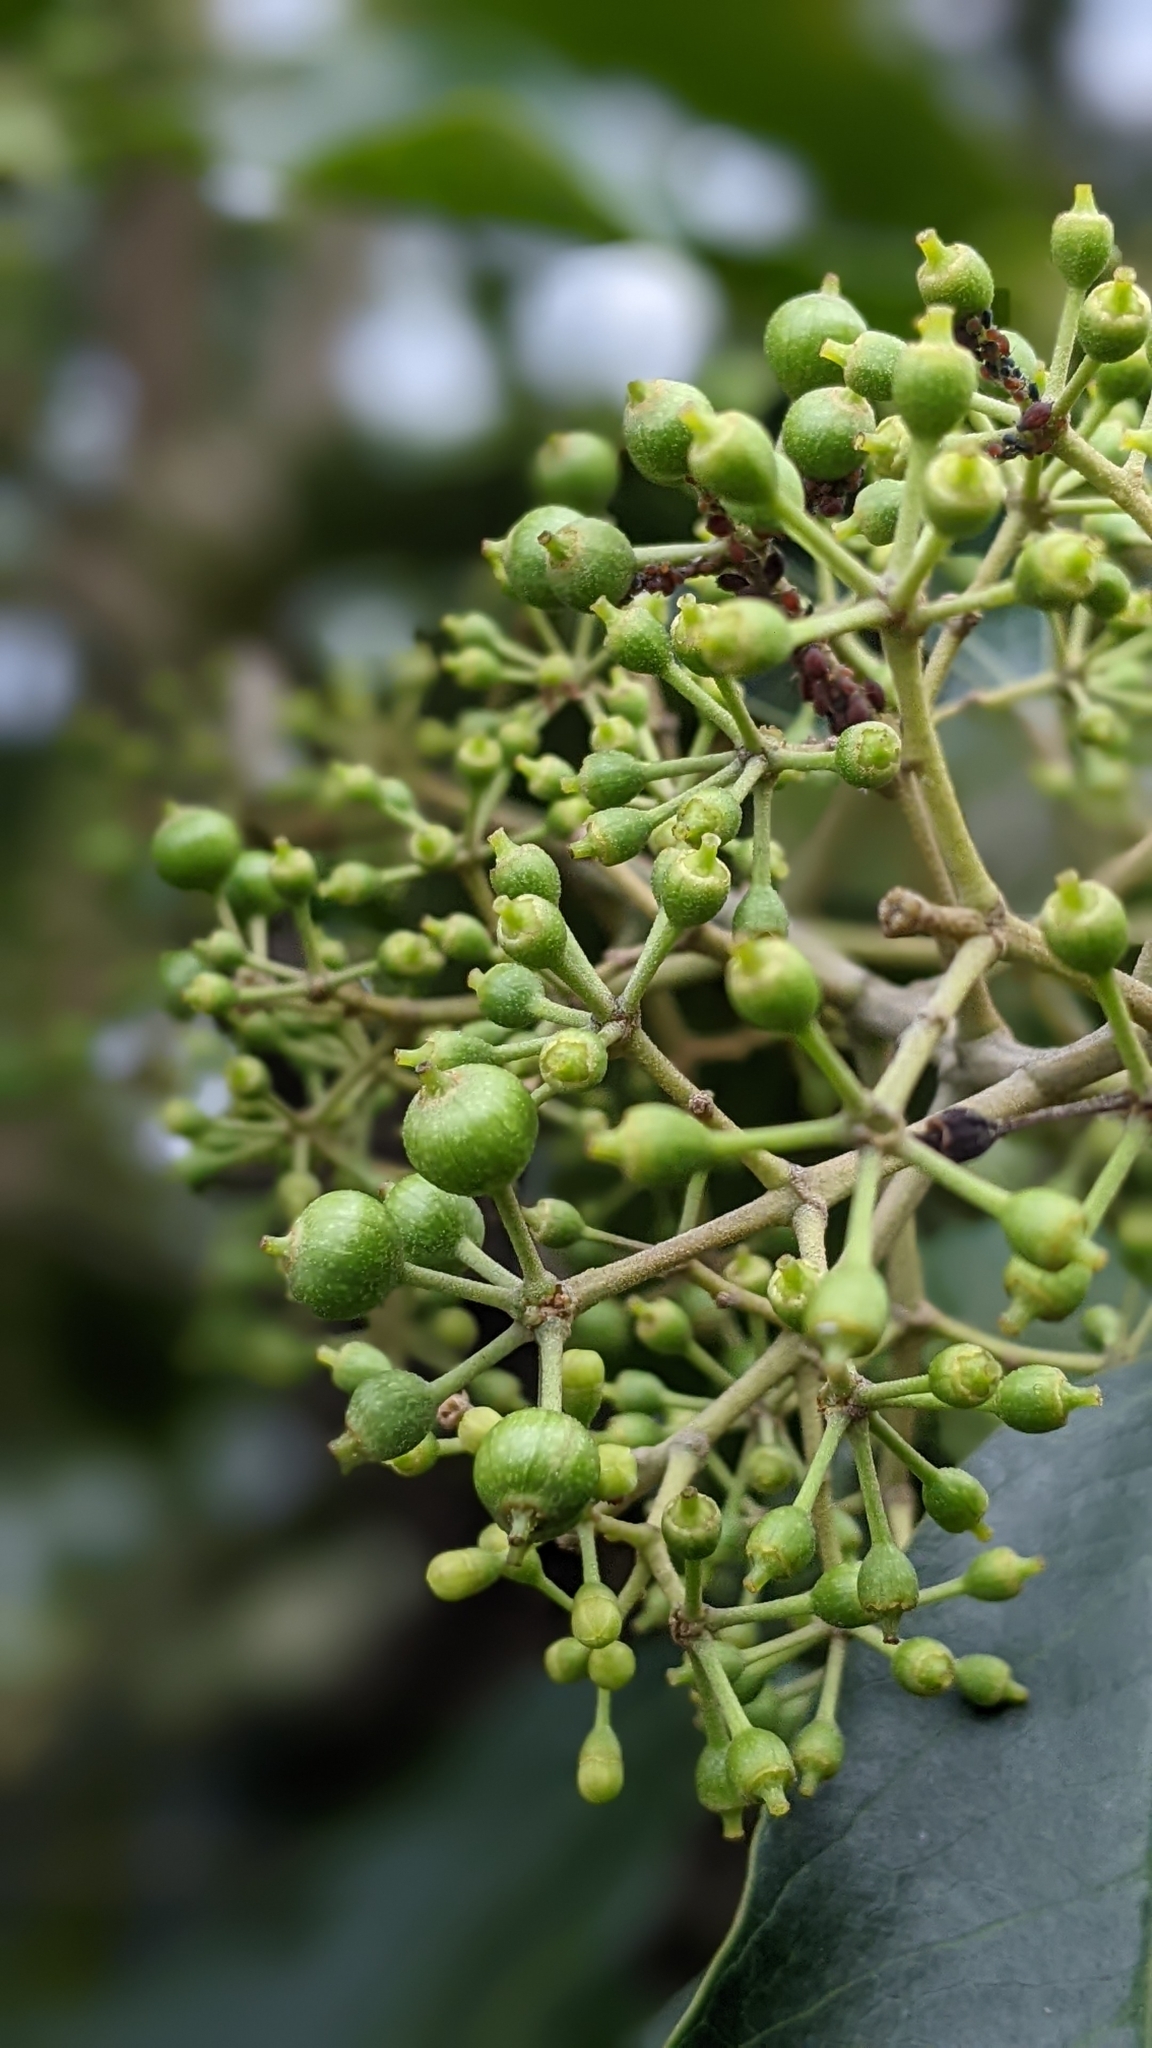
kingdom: Plantae
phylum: Tracheophyta
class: Magnoliopsida
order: Apiales
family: Araliaceae
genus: Heptapleurum
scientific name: Heptapleurum heptaphyllum
